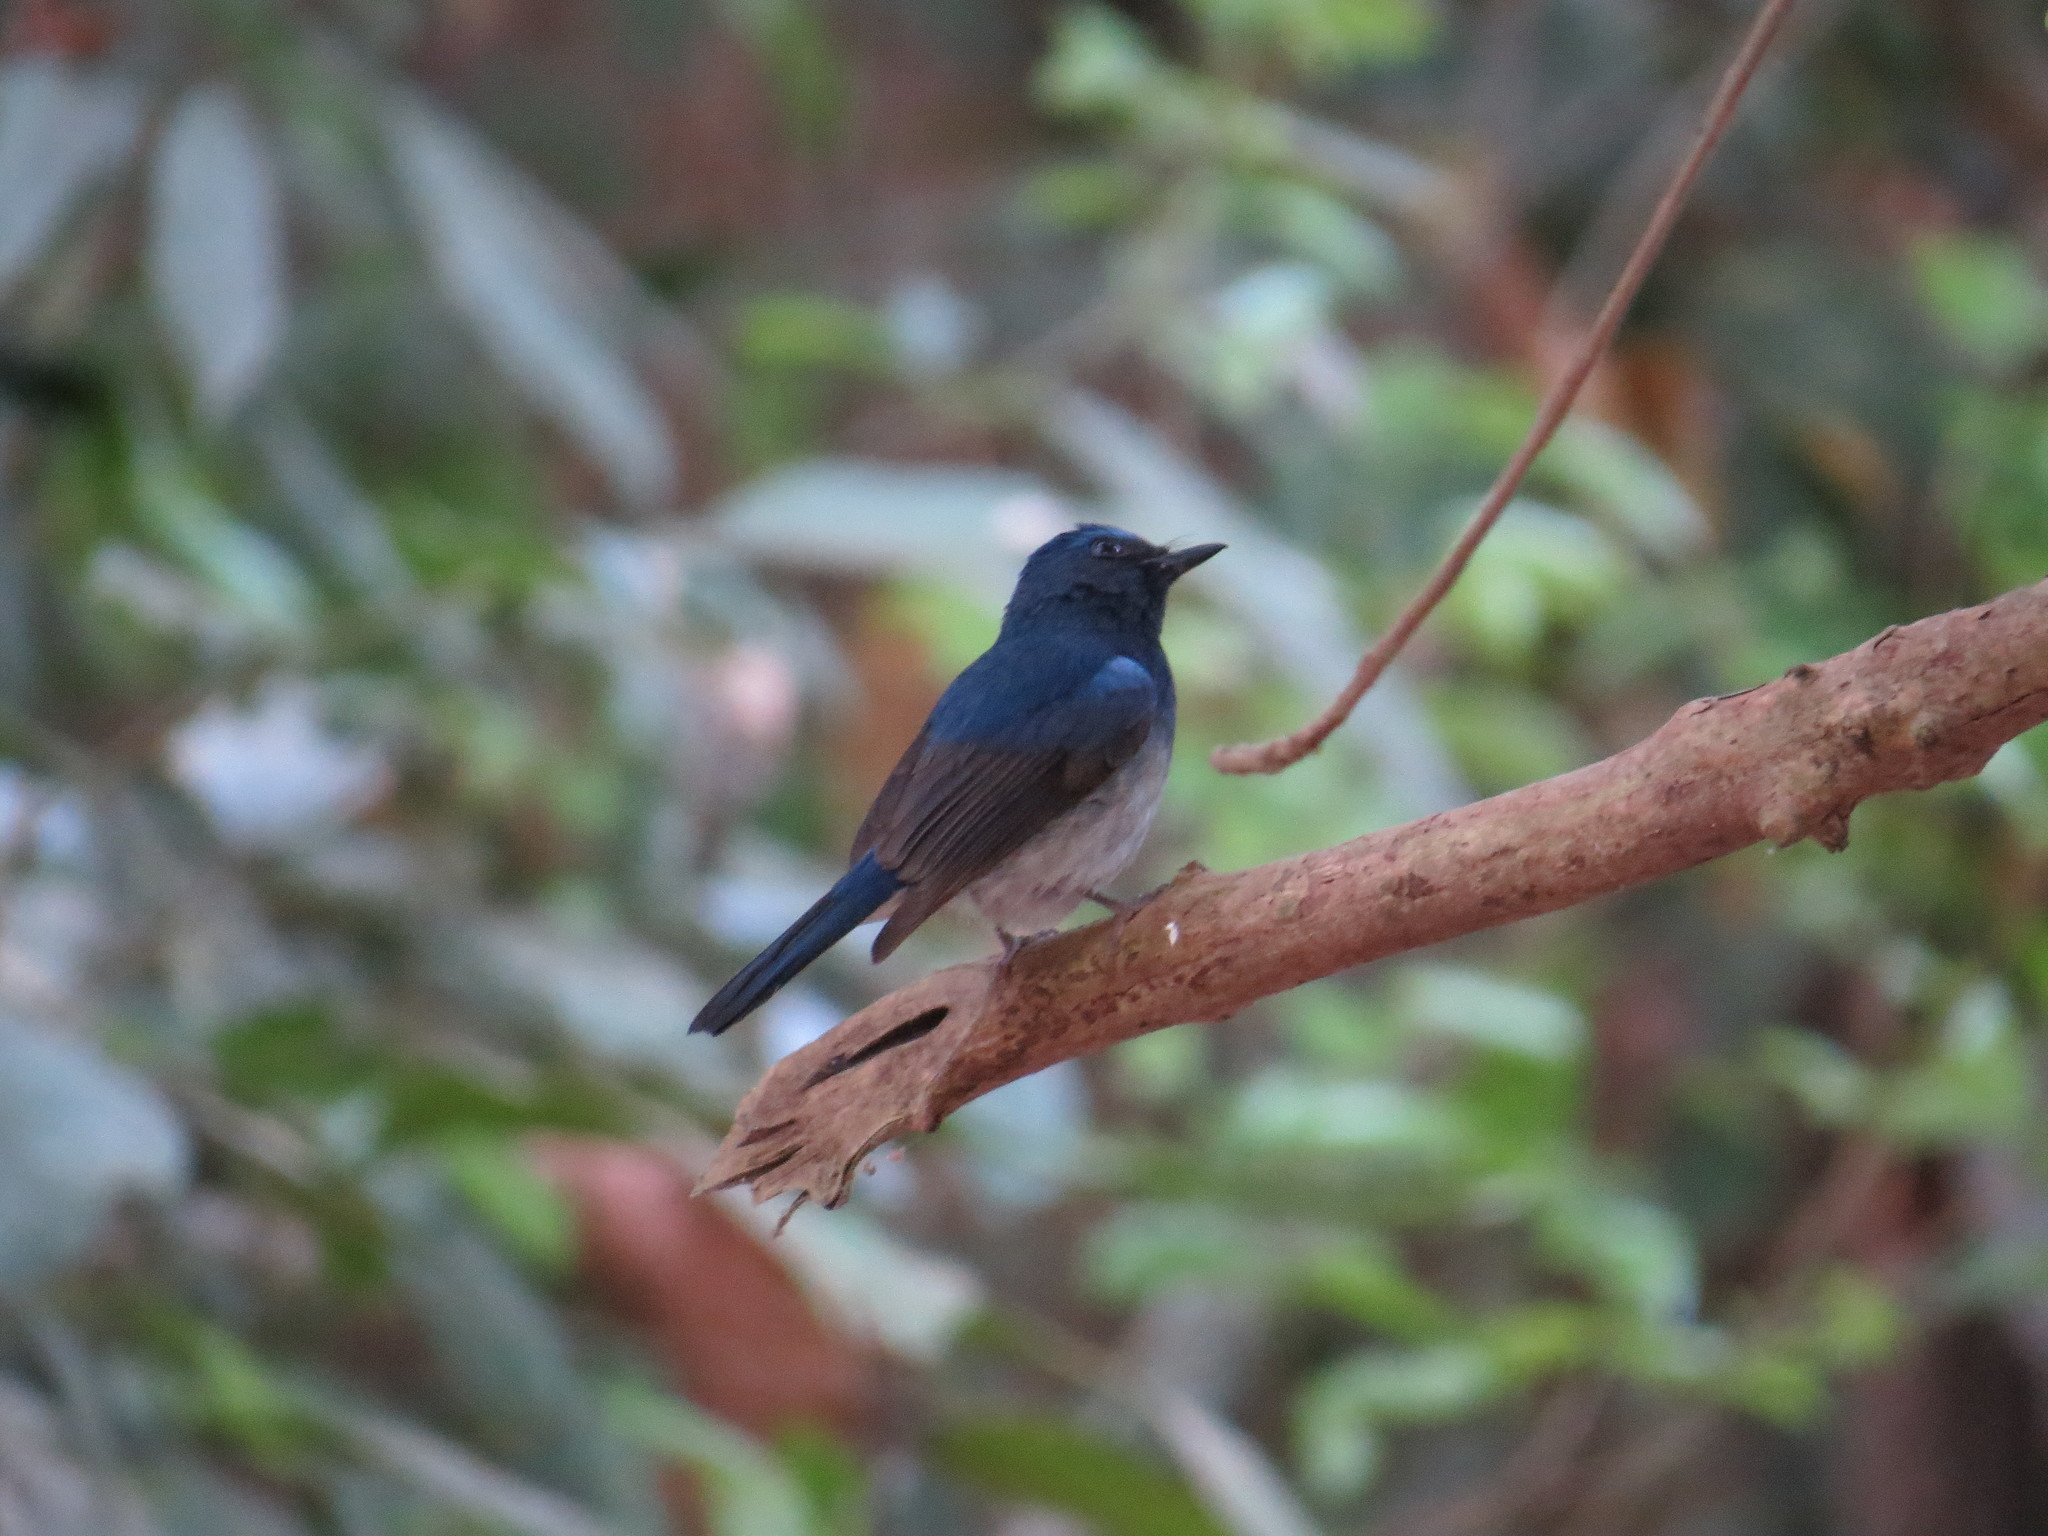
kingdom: Animalia
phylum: Chordata
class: Aves
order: Passeriformes
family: Muscicapidae
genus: Cyornis
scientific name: Cyornis hainanus
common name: Hainan blue flycatcher
